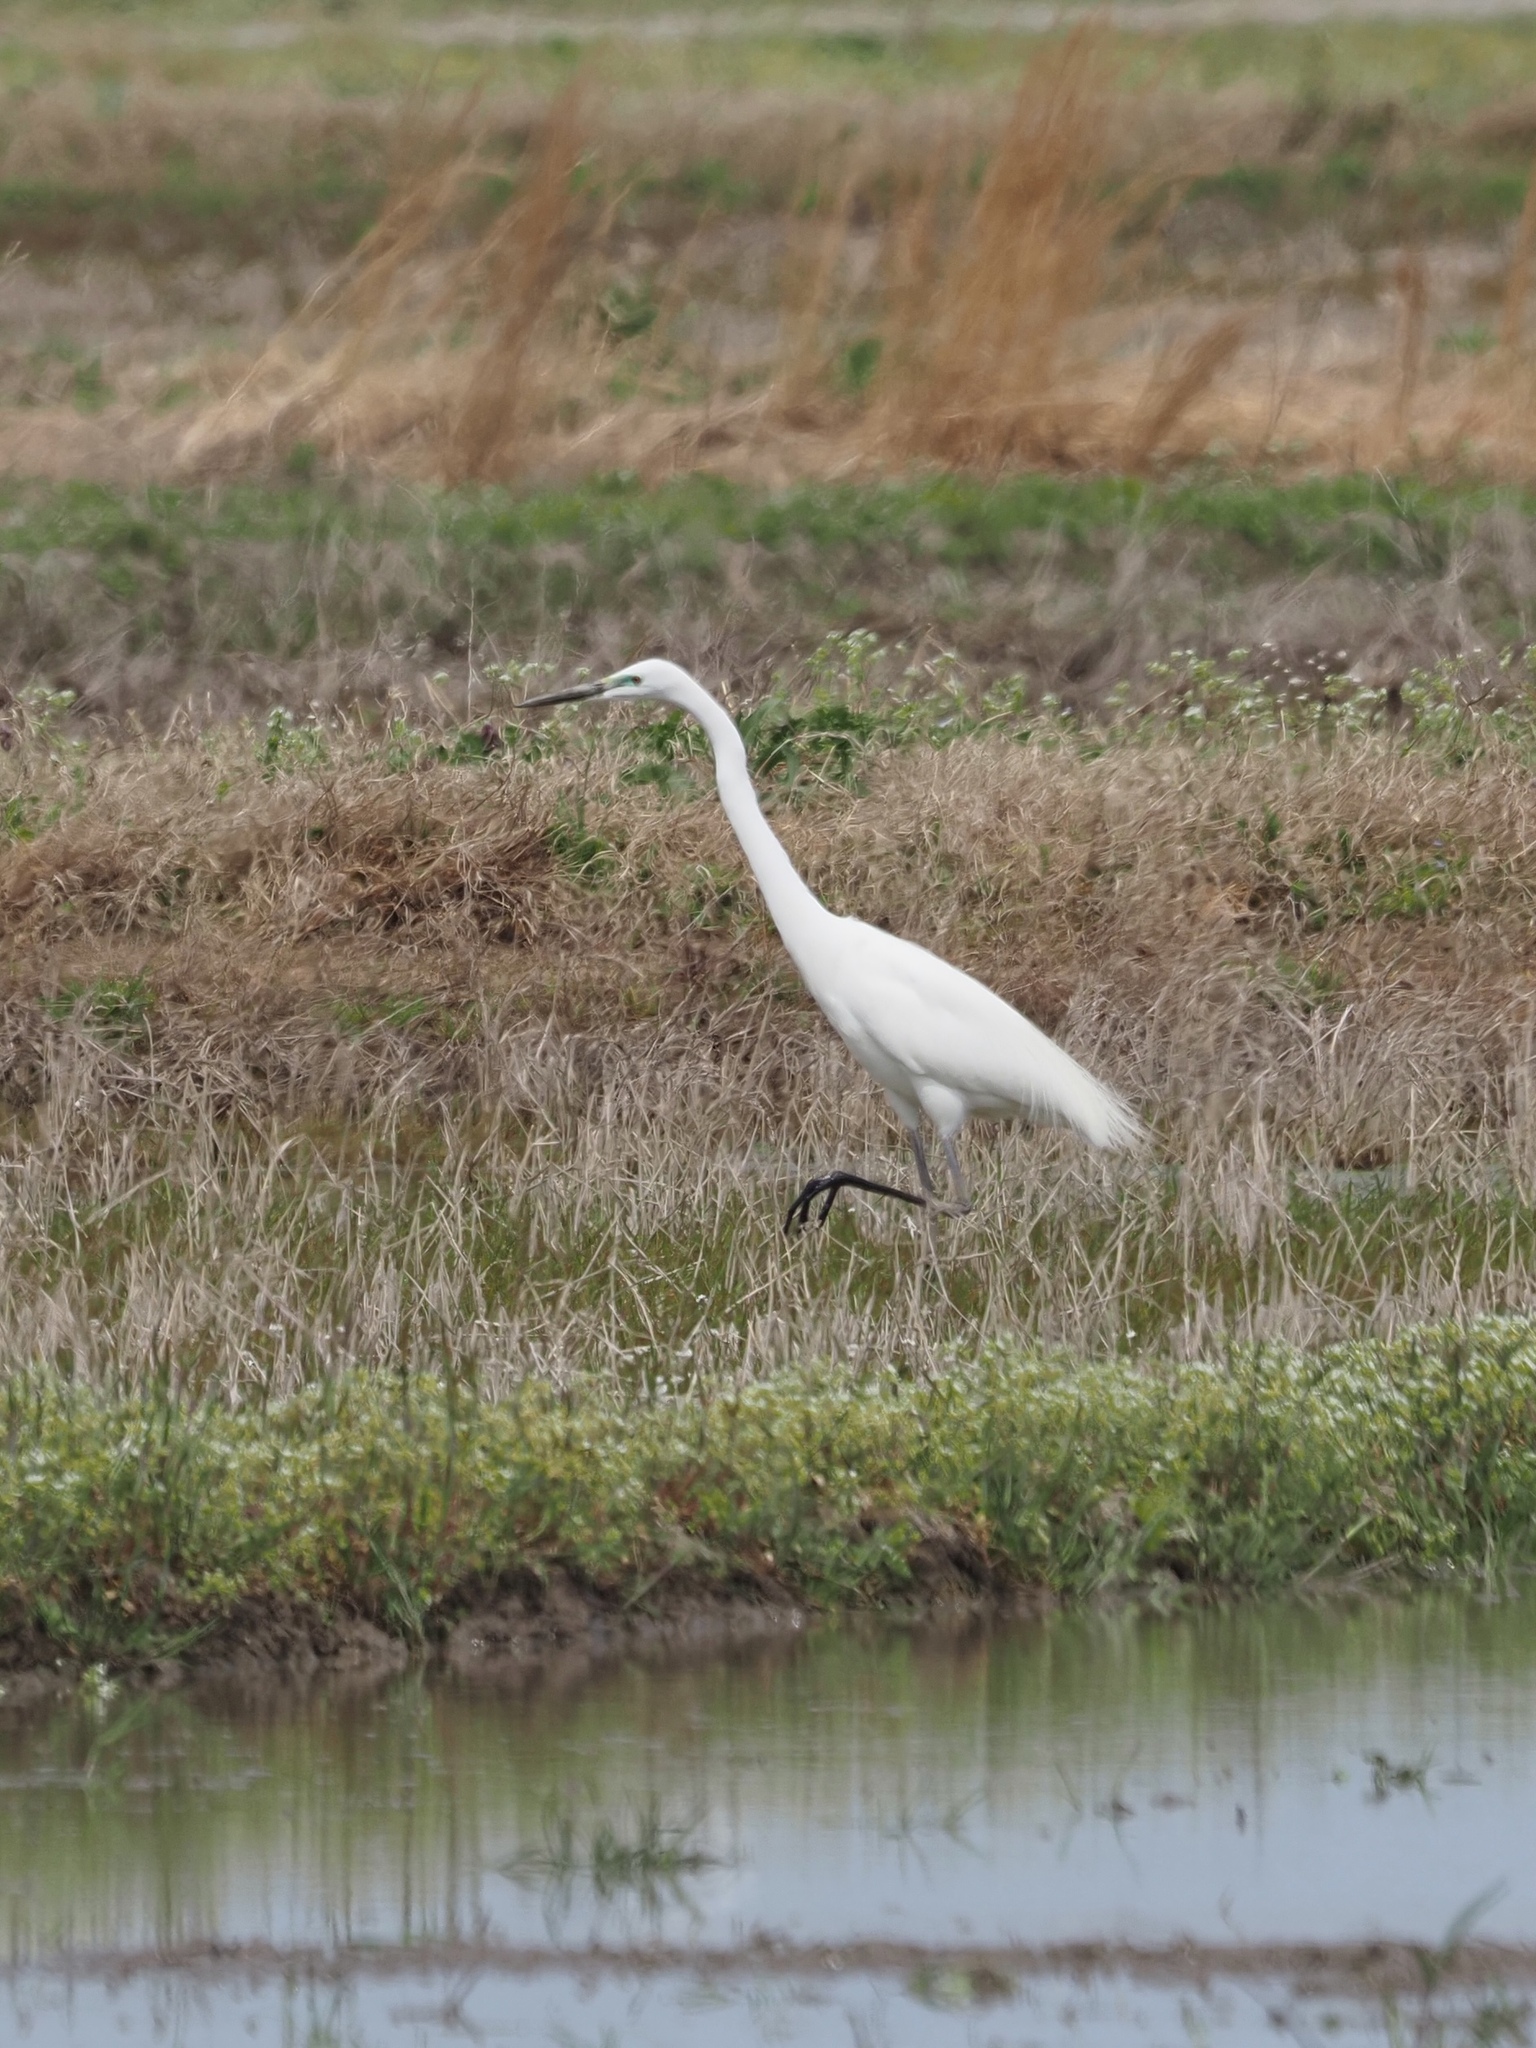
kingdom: Animalia
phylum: Chordata
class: Aves
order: Pelecaniformes
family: Ardeidae
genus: Ardea
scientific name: Ardea alba
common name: Great egret
